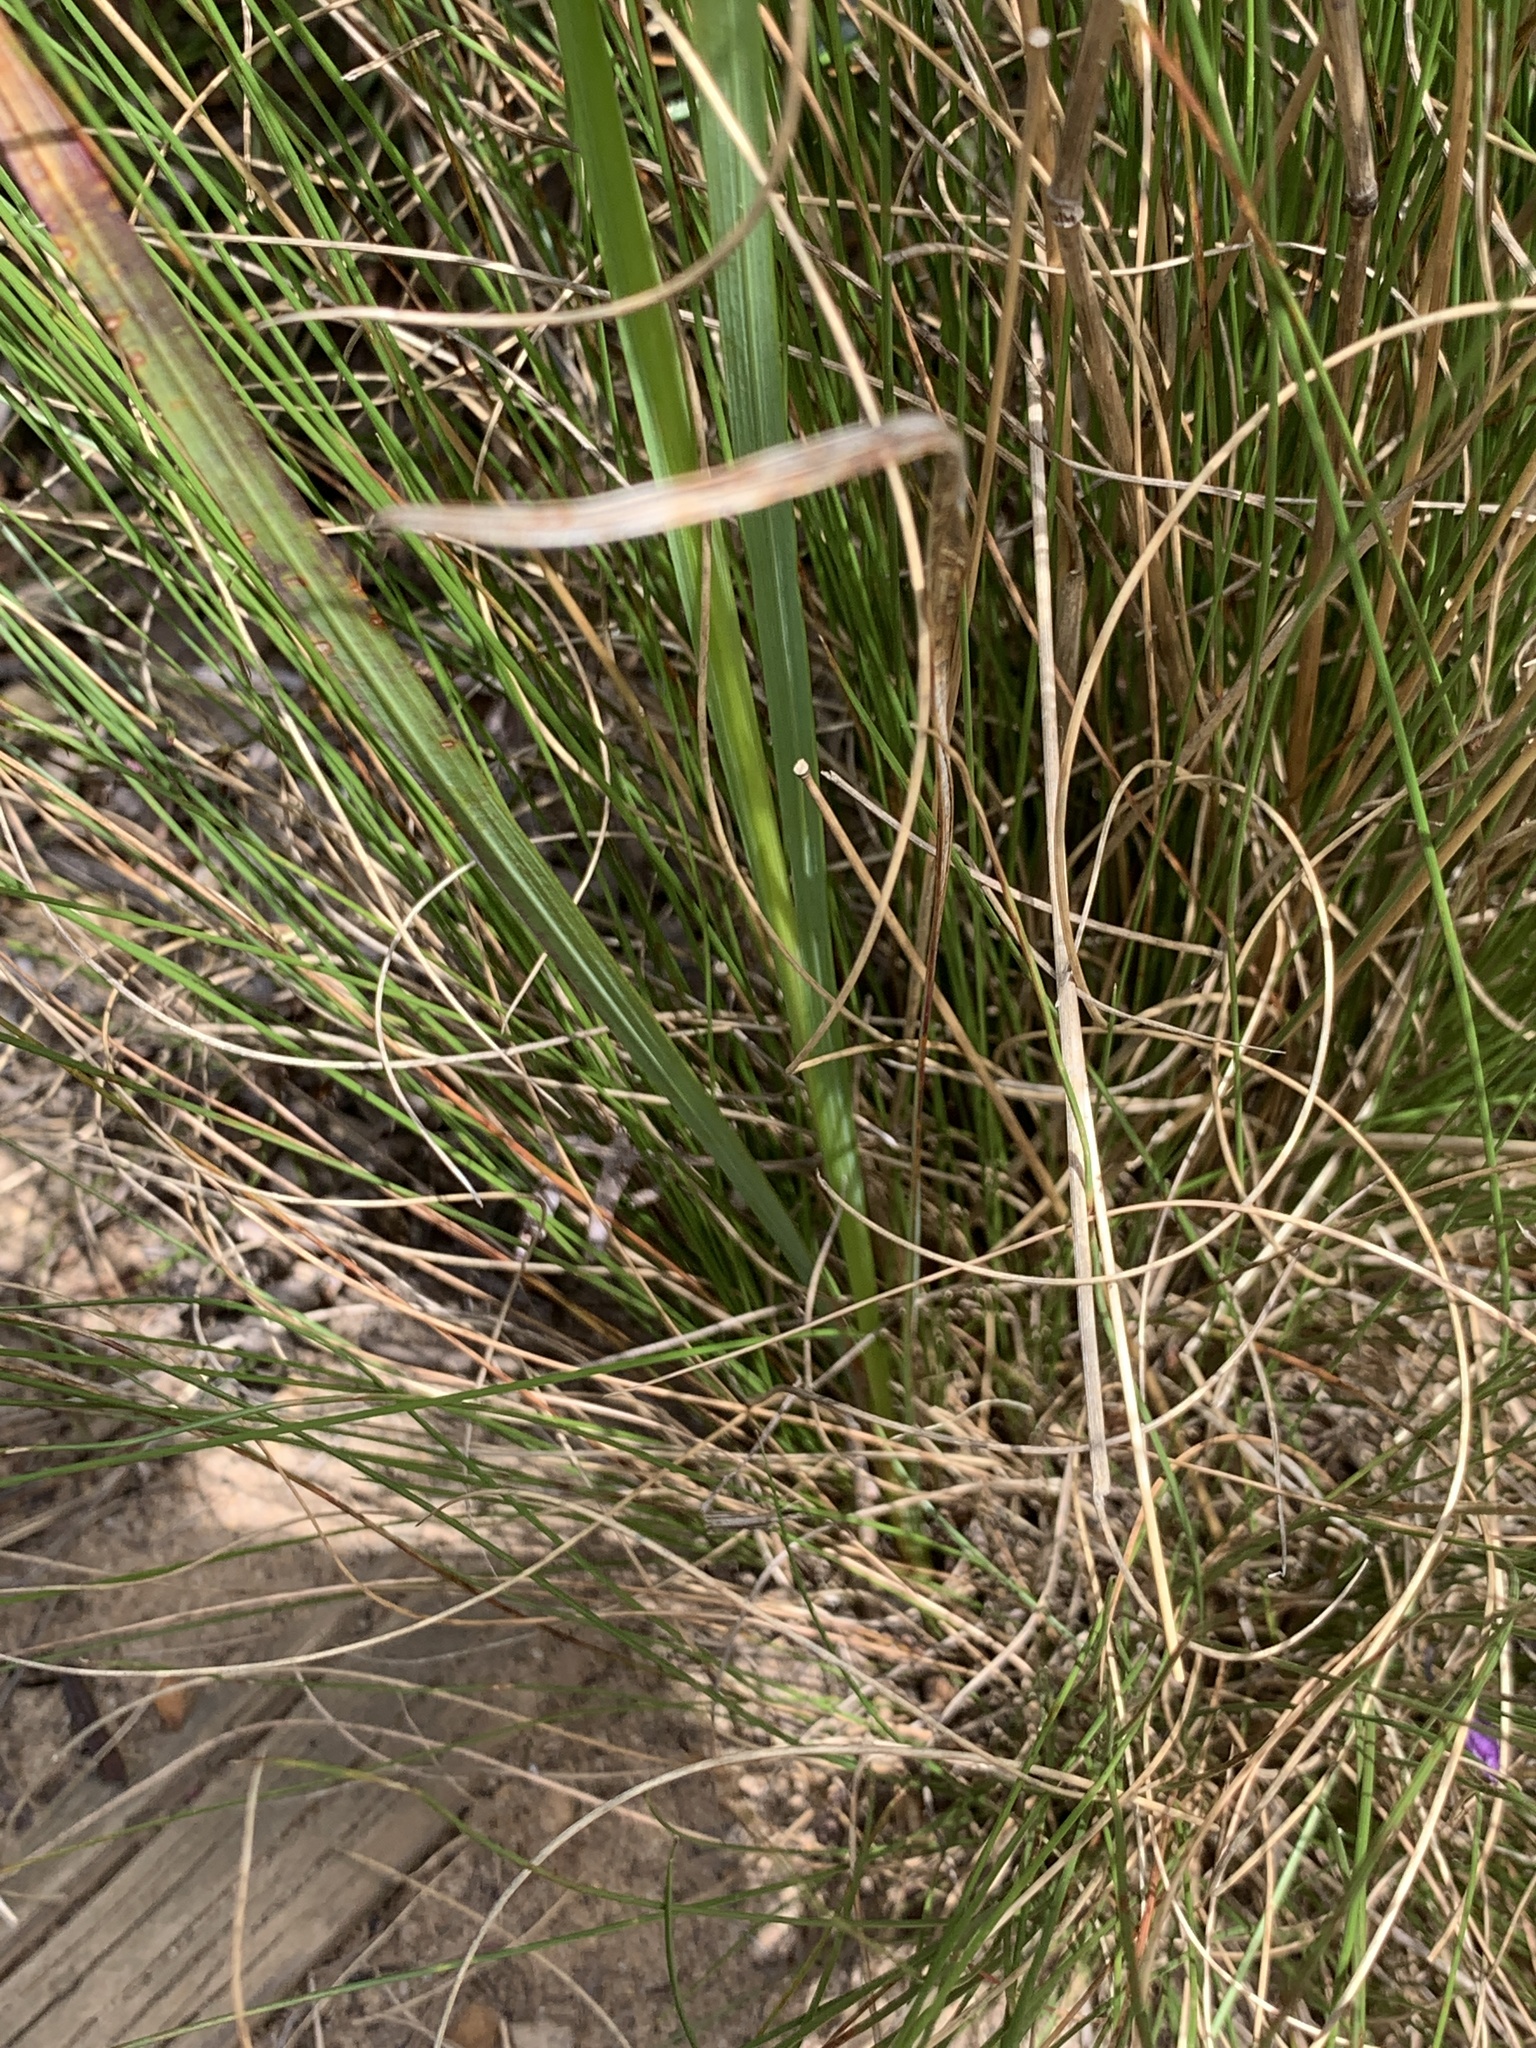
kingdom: Plantae
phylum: Tracheophyta
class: Liliopsida
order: Asparagales
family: Iridaceae
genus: Ixia
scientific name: Ixia polystachya
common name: White-and-yellow-flower cornlily
